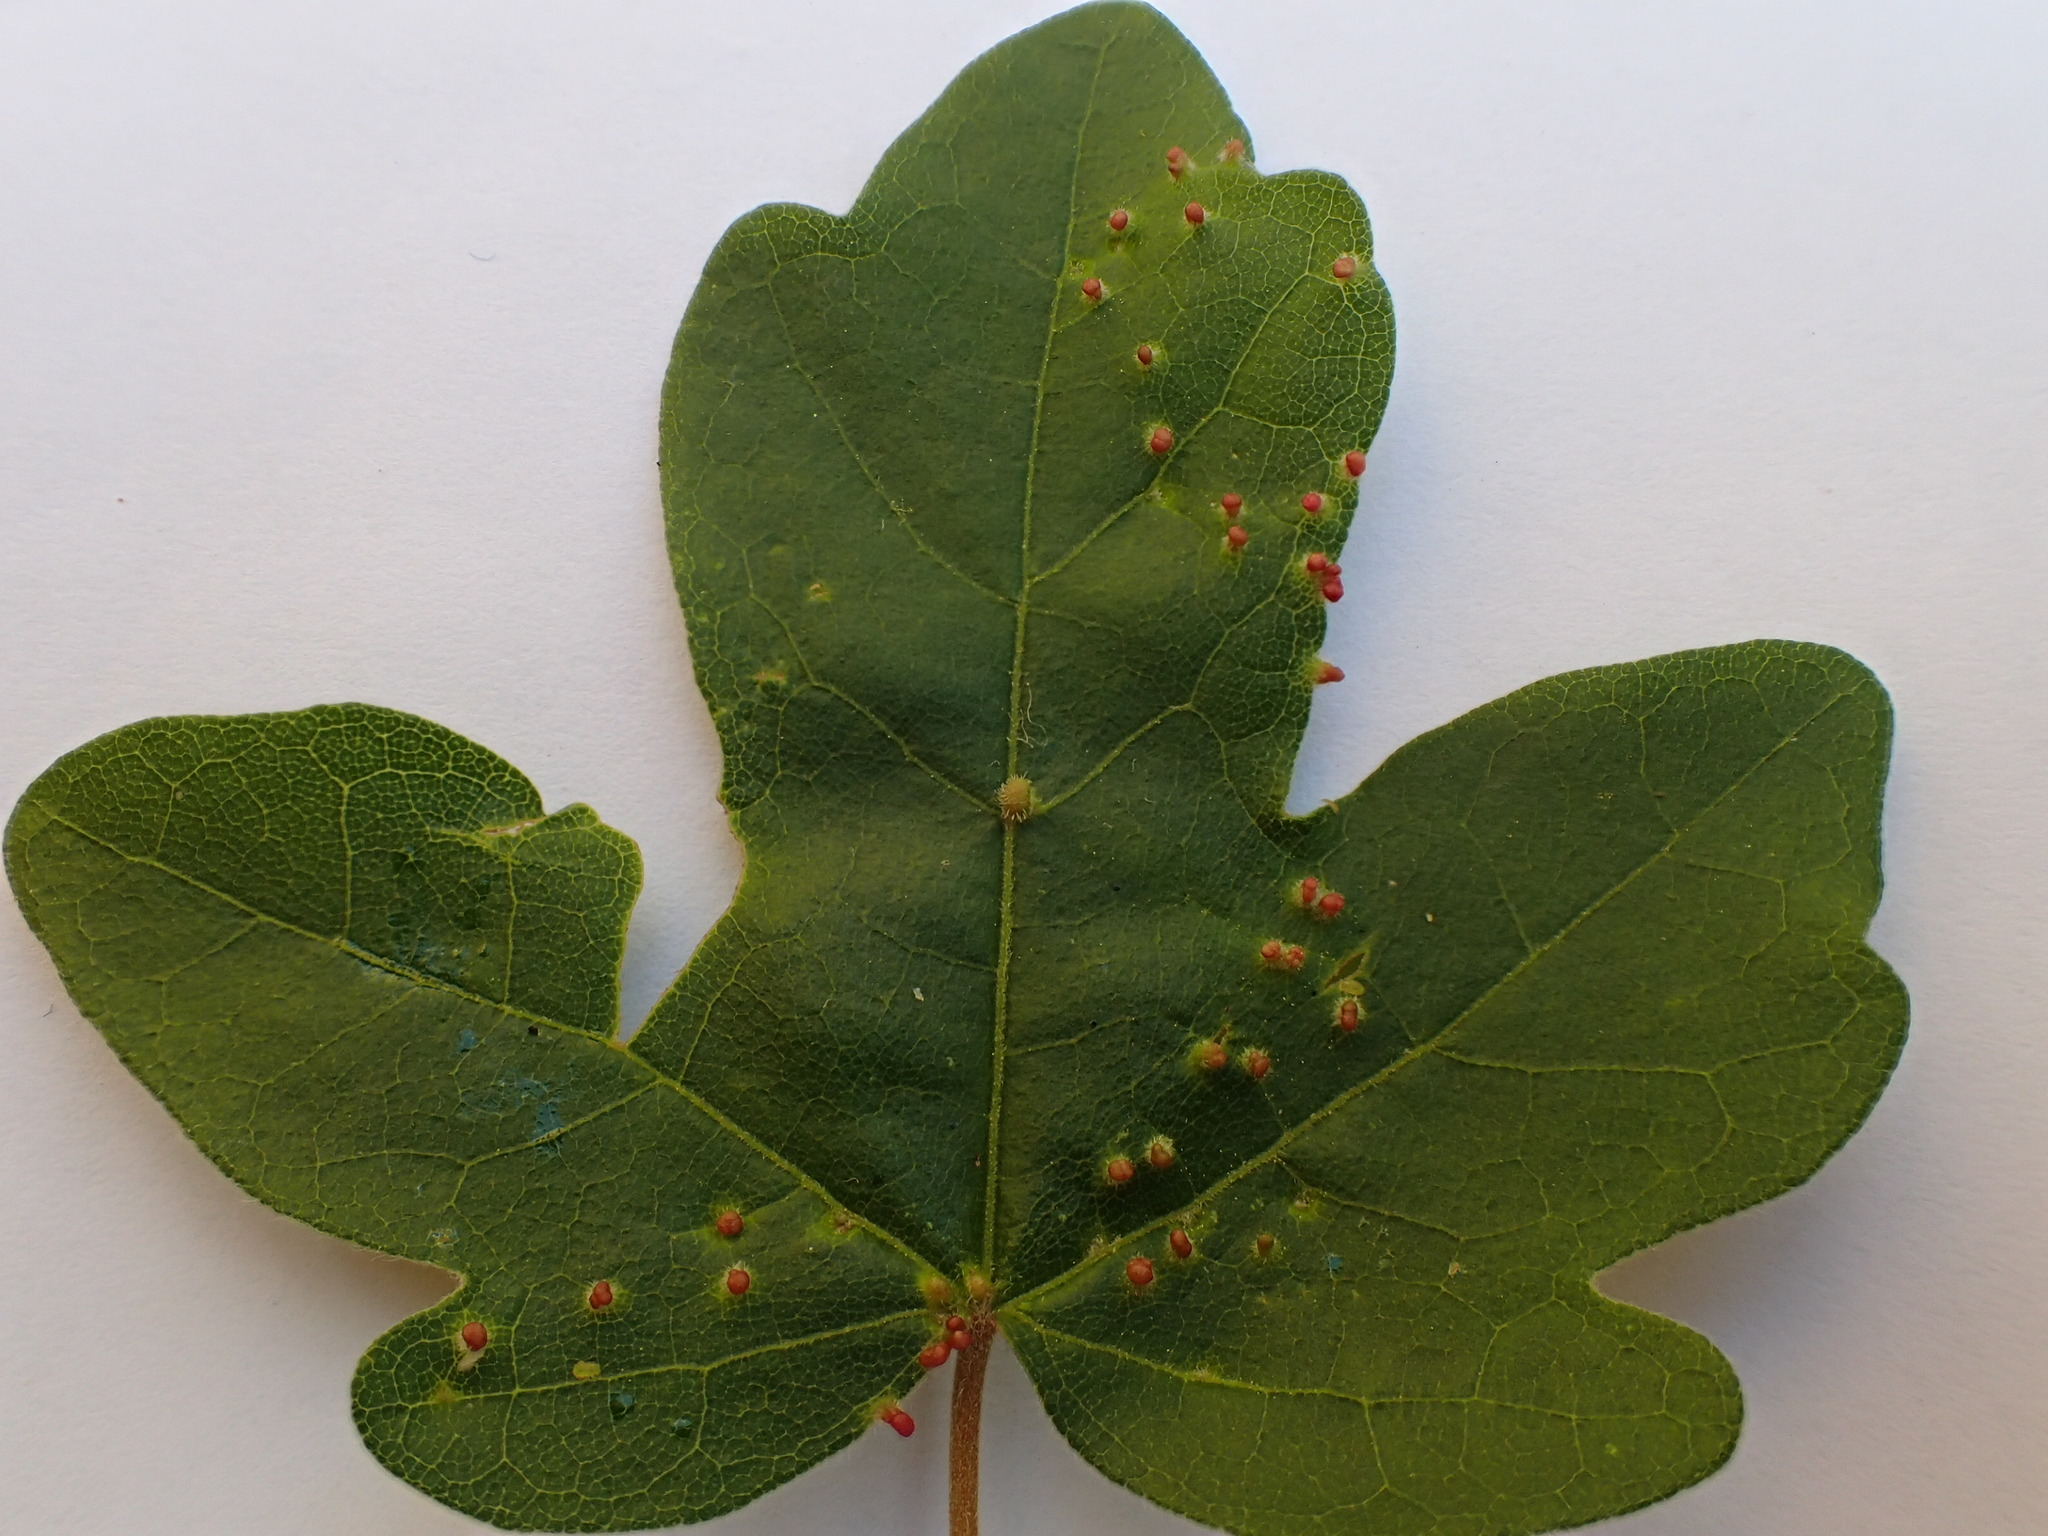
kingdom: Animalia
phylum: Arthropoda
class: Arachnida
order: Trombidiformes
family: Eriophyidae
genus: Aceria
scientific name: Aceria myriadeum
